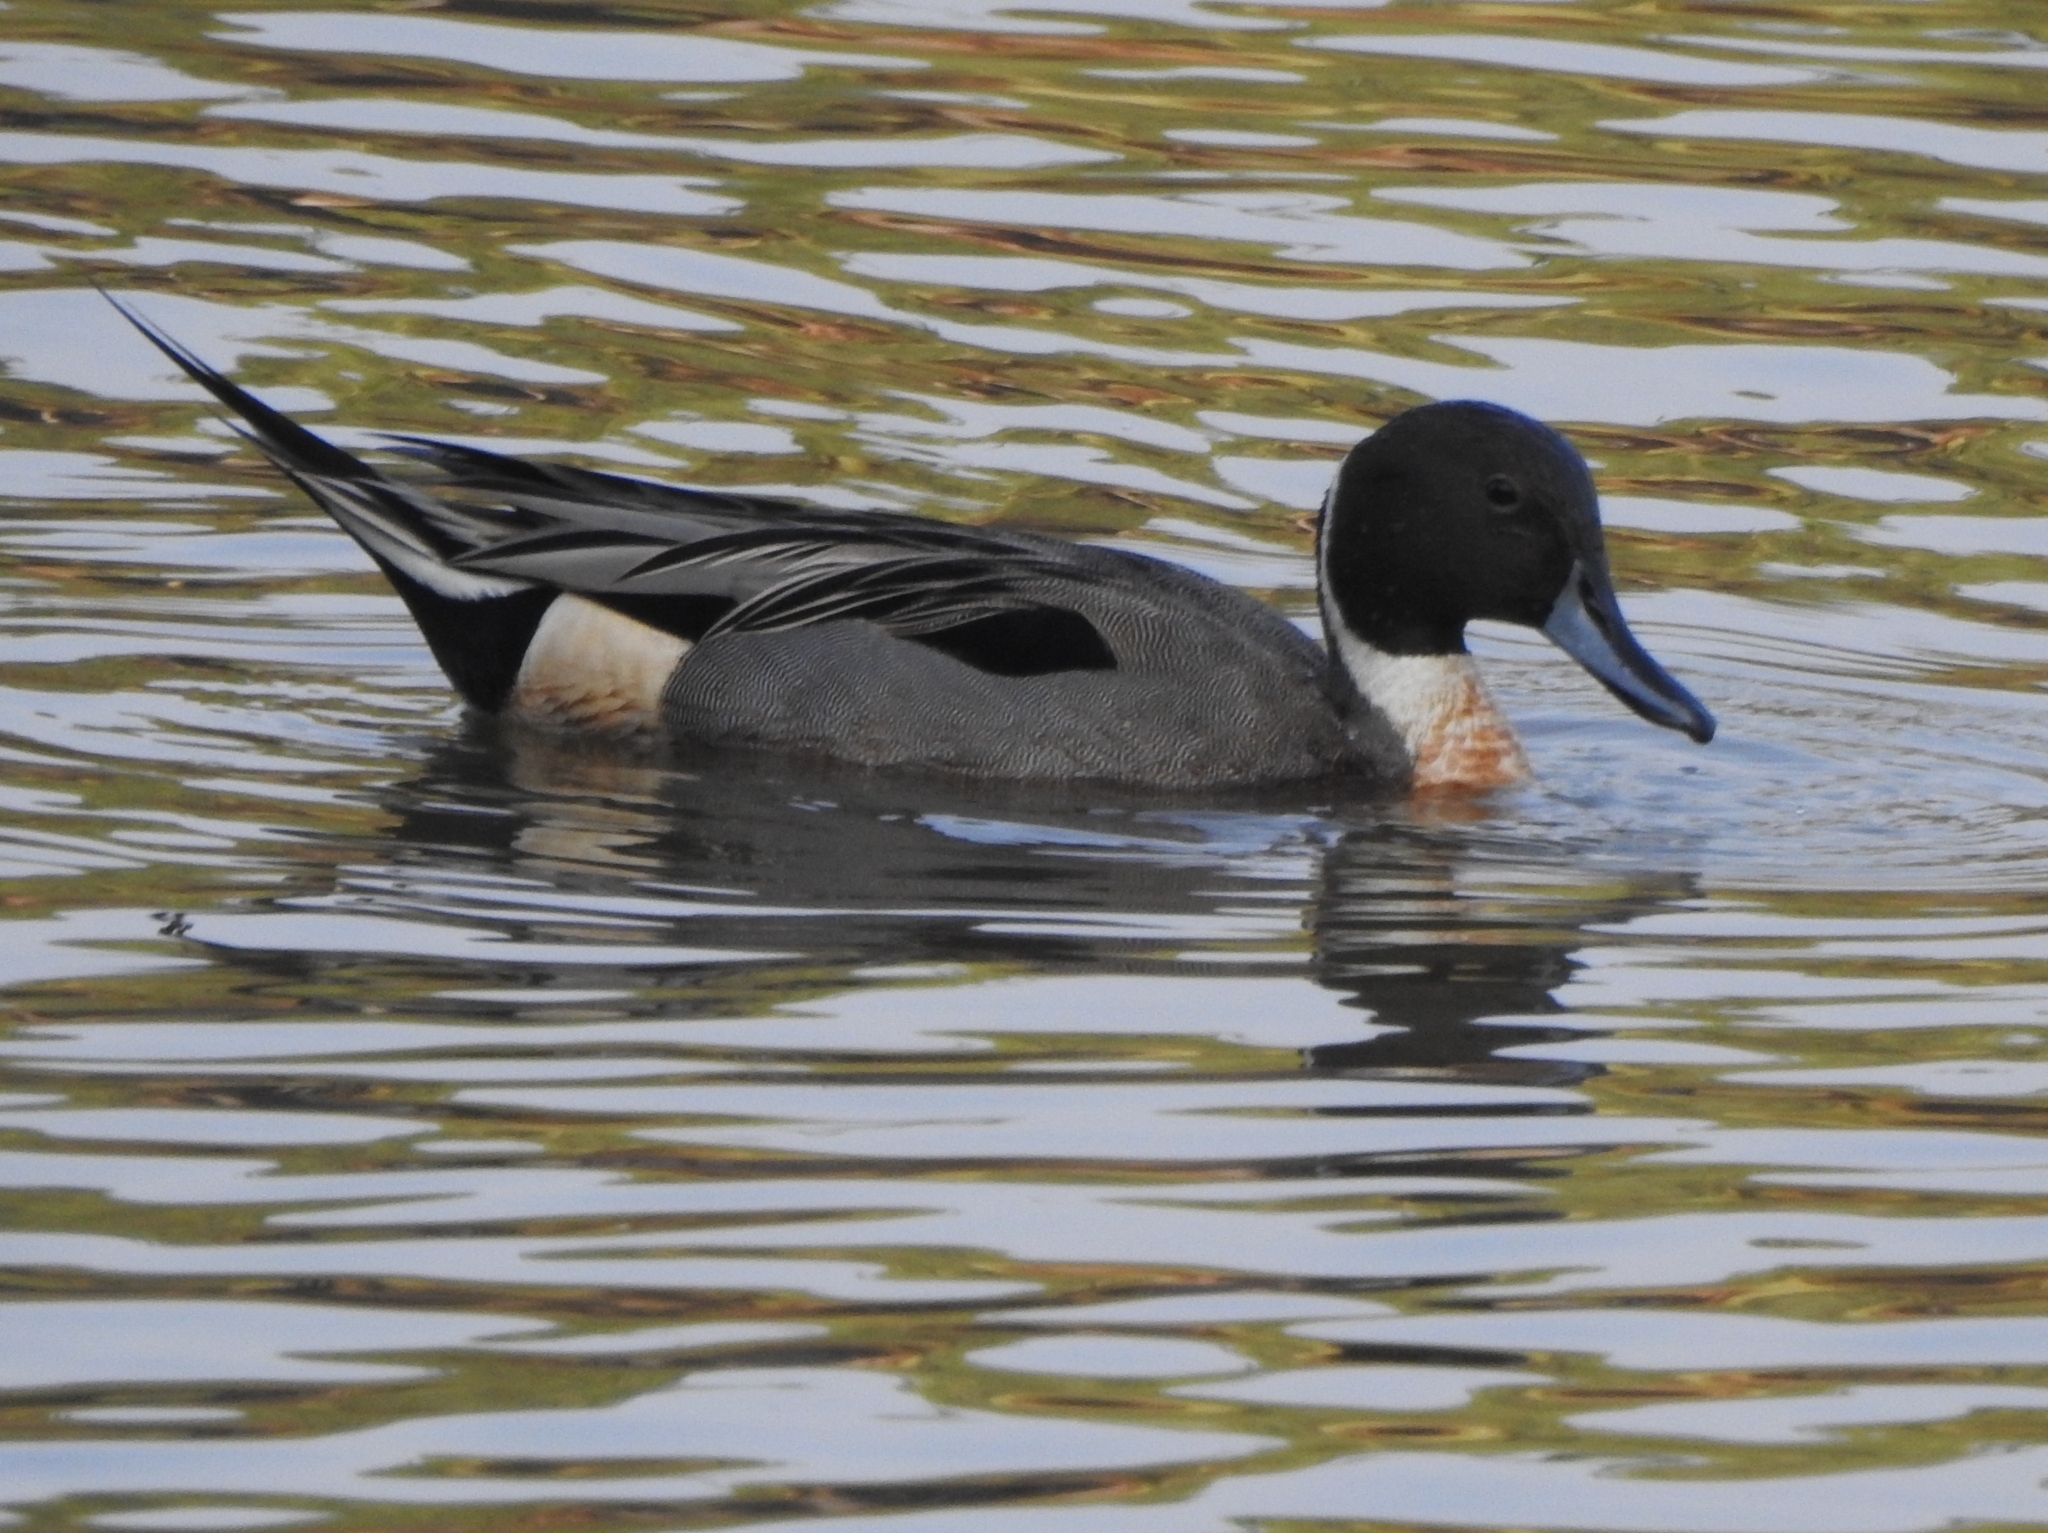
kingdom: Animalia
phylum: Chordata
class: Aves
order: Anseriformes
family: Anatidae
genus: Anas
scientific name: Anas acuta
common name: Northern pintail
